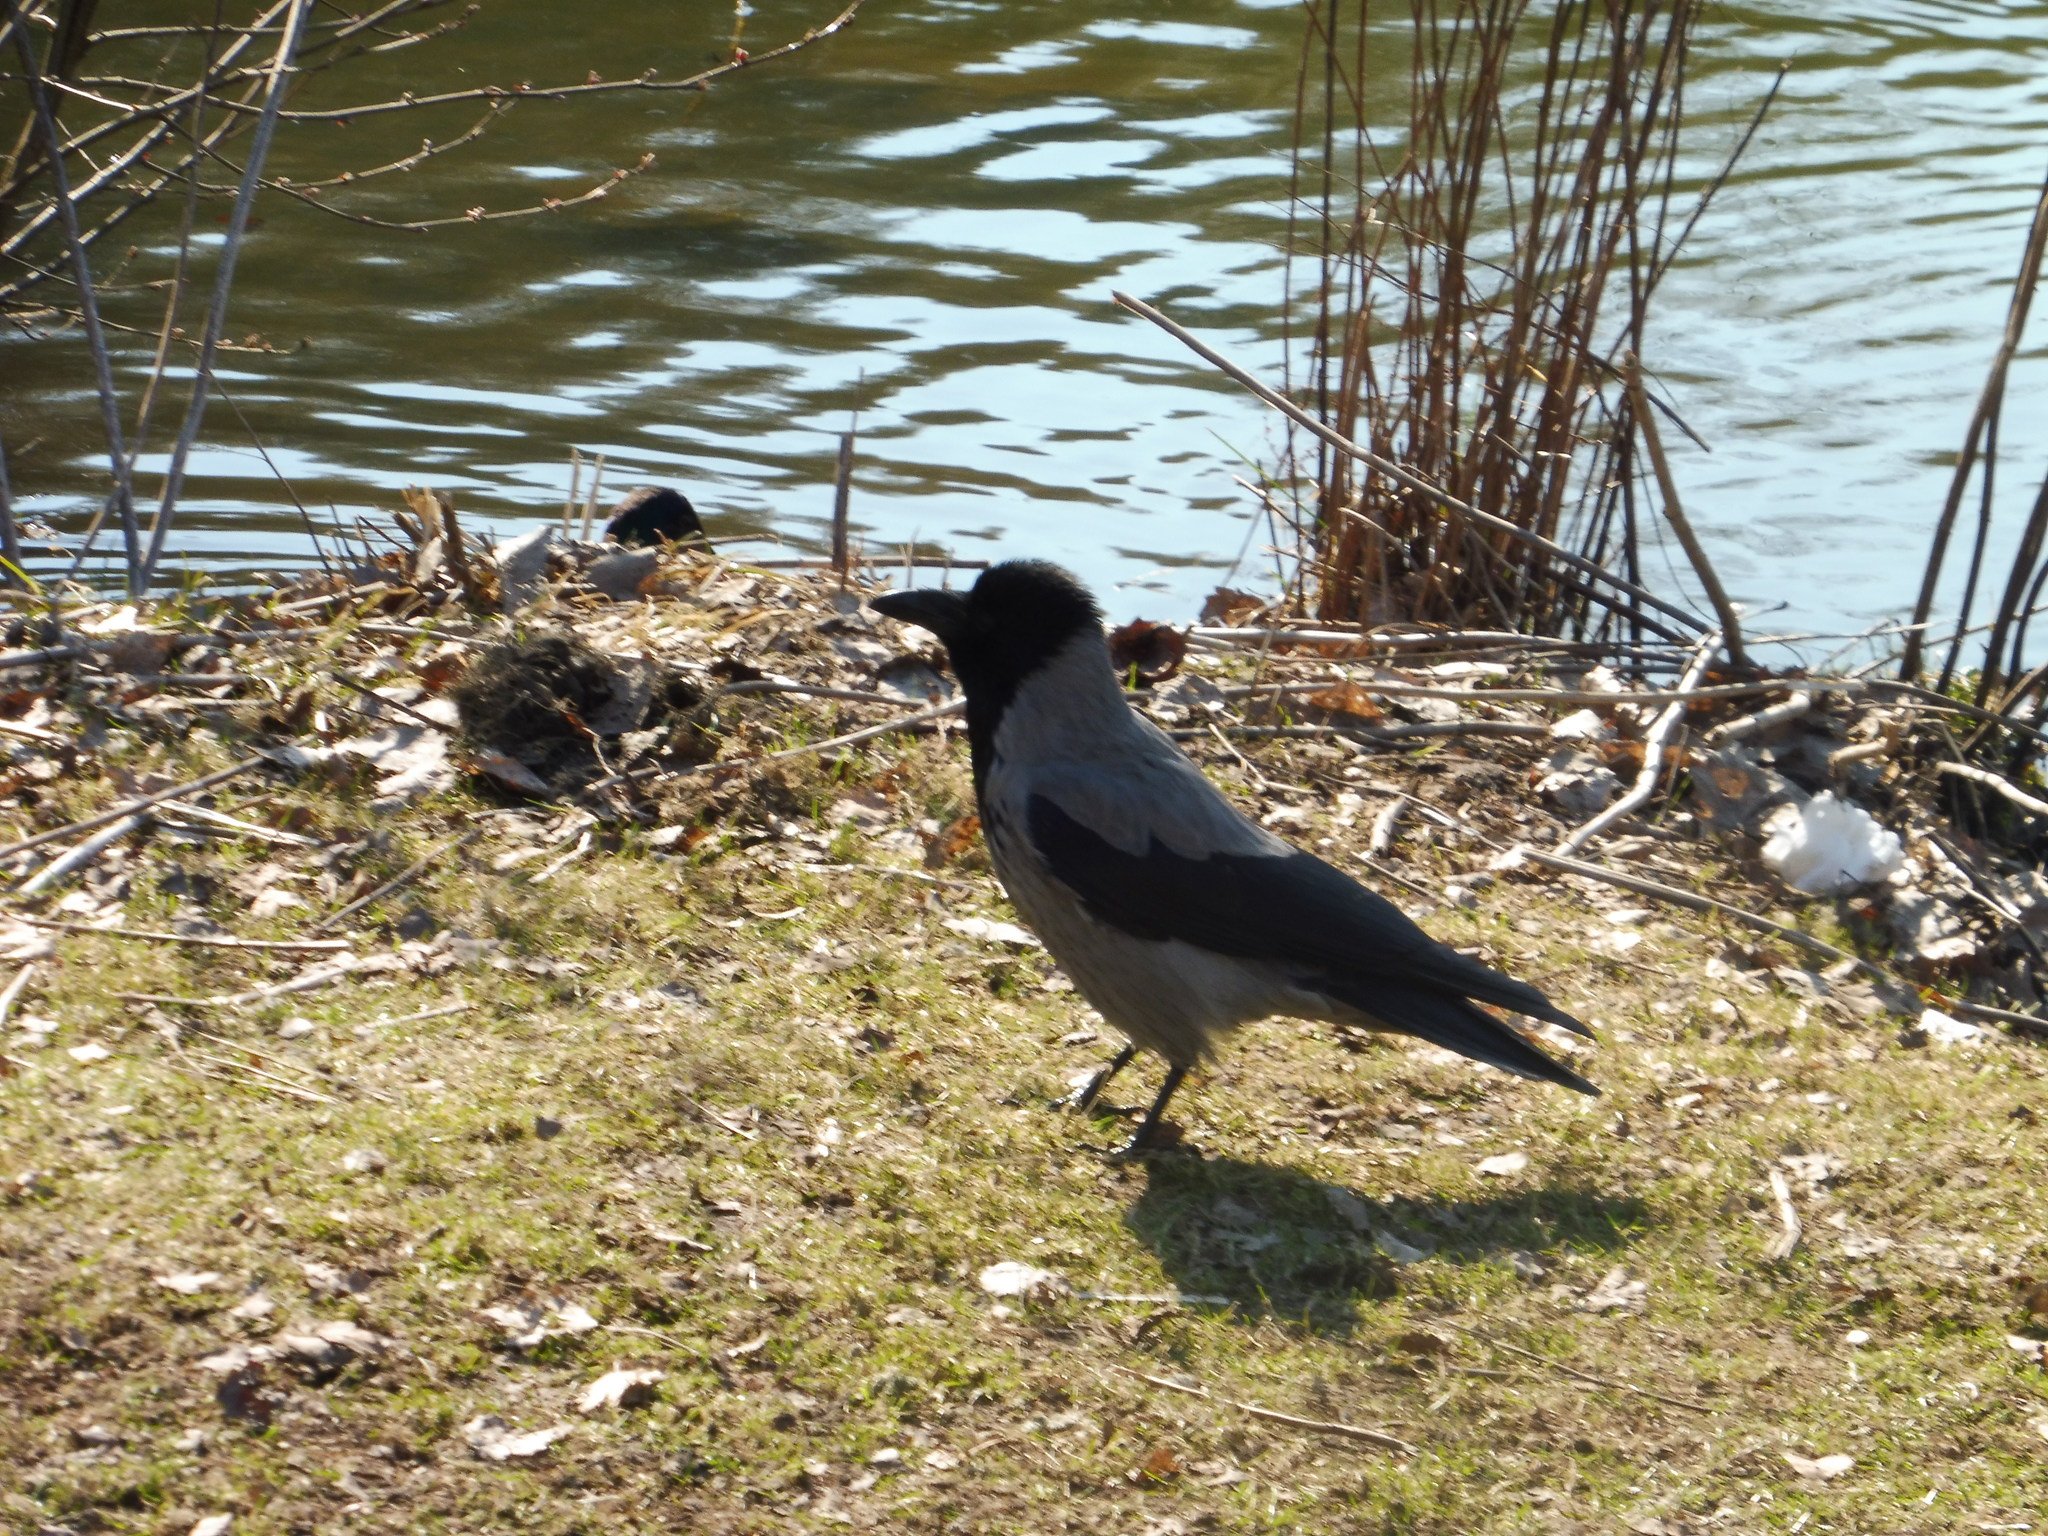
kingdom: Animalia
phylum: Chordata
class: Aves
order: Passeriformes
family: Corvidae
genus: Corvus
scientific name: Corvus cornix
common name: Hooded crow
